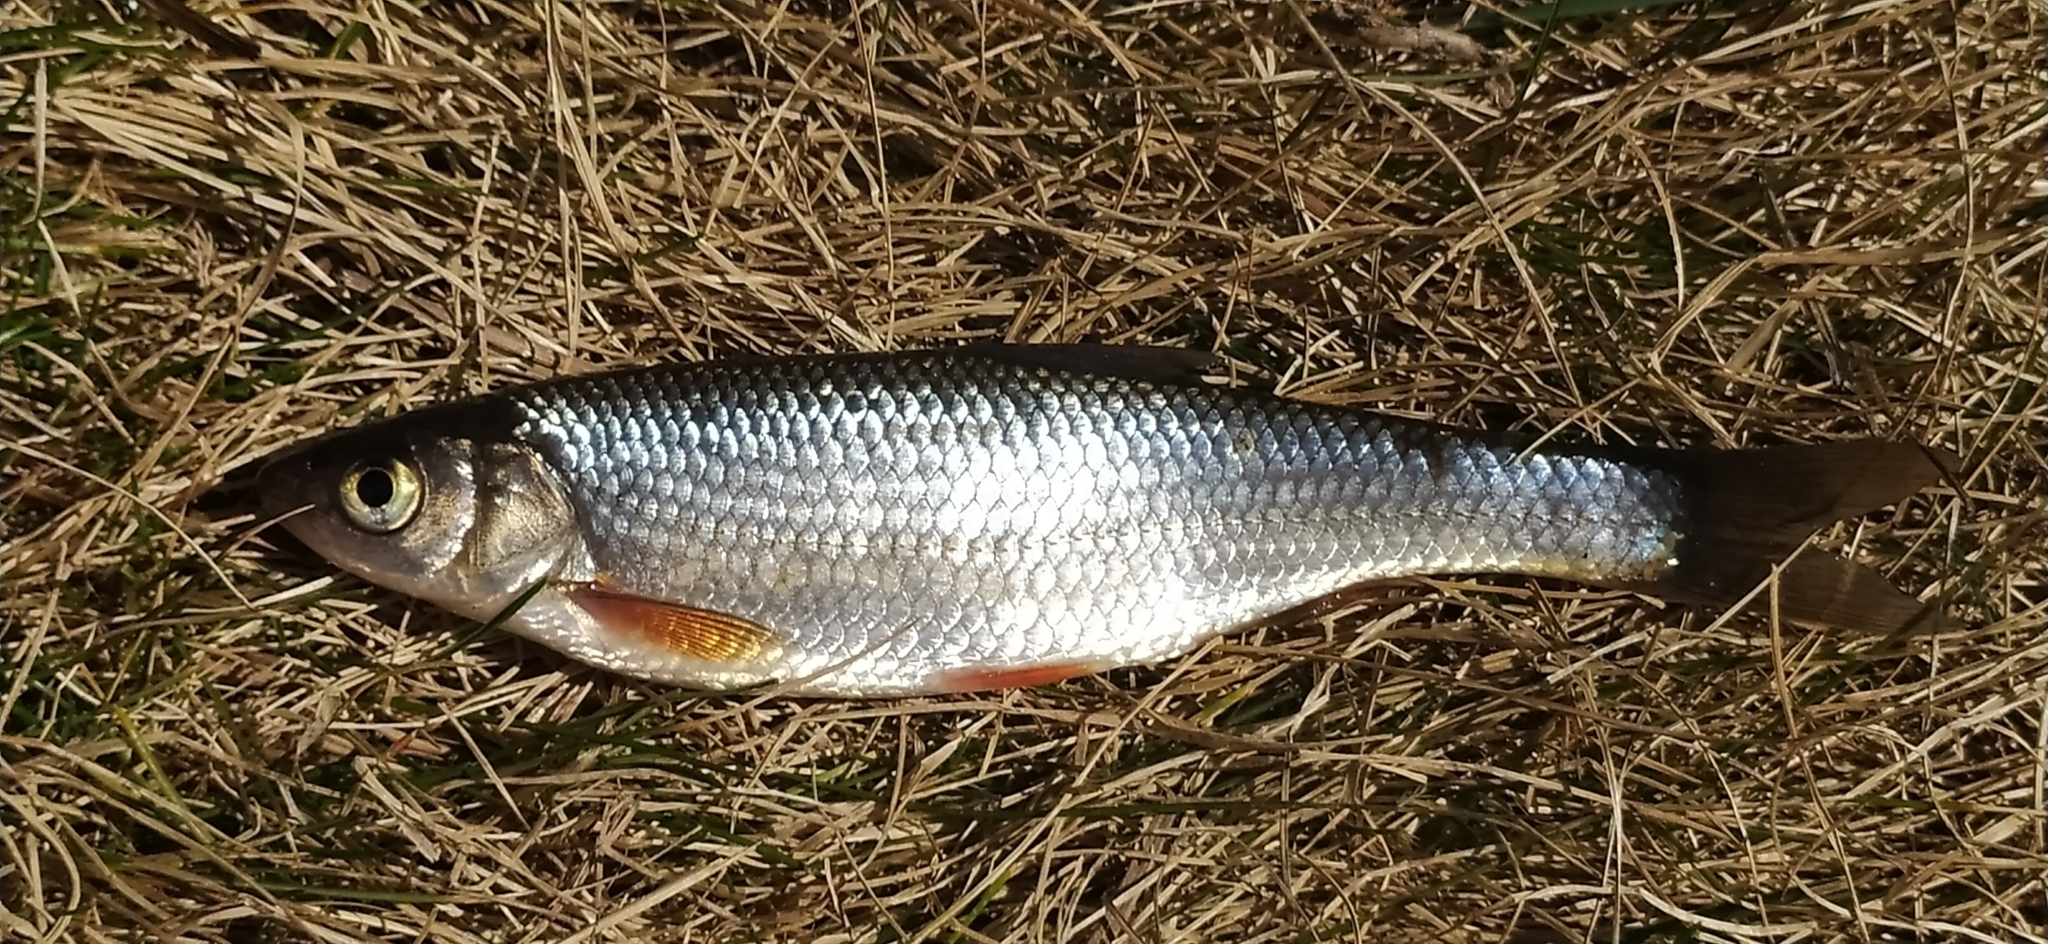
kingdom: Animalia
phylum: Chordata
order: Cypriniformes
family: Cyprinidae
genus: Leuciscus
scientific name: Leuciscus leuciscus
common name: Dace
